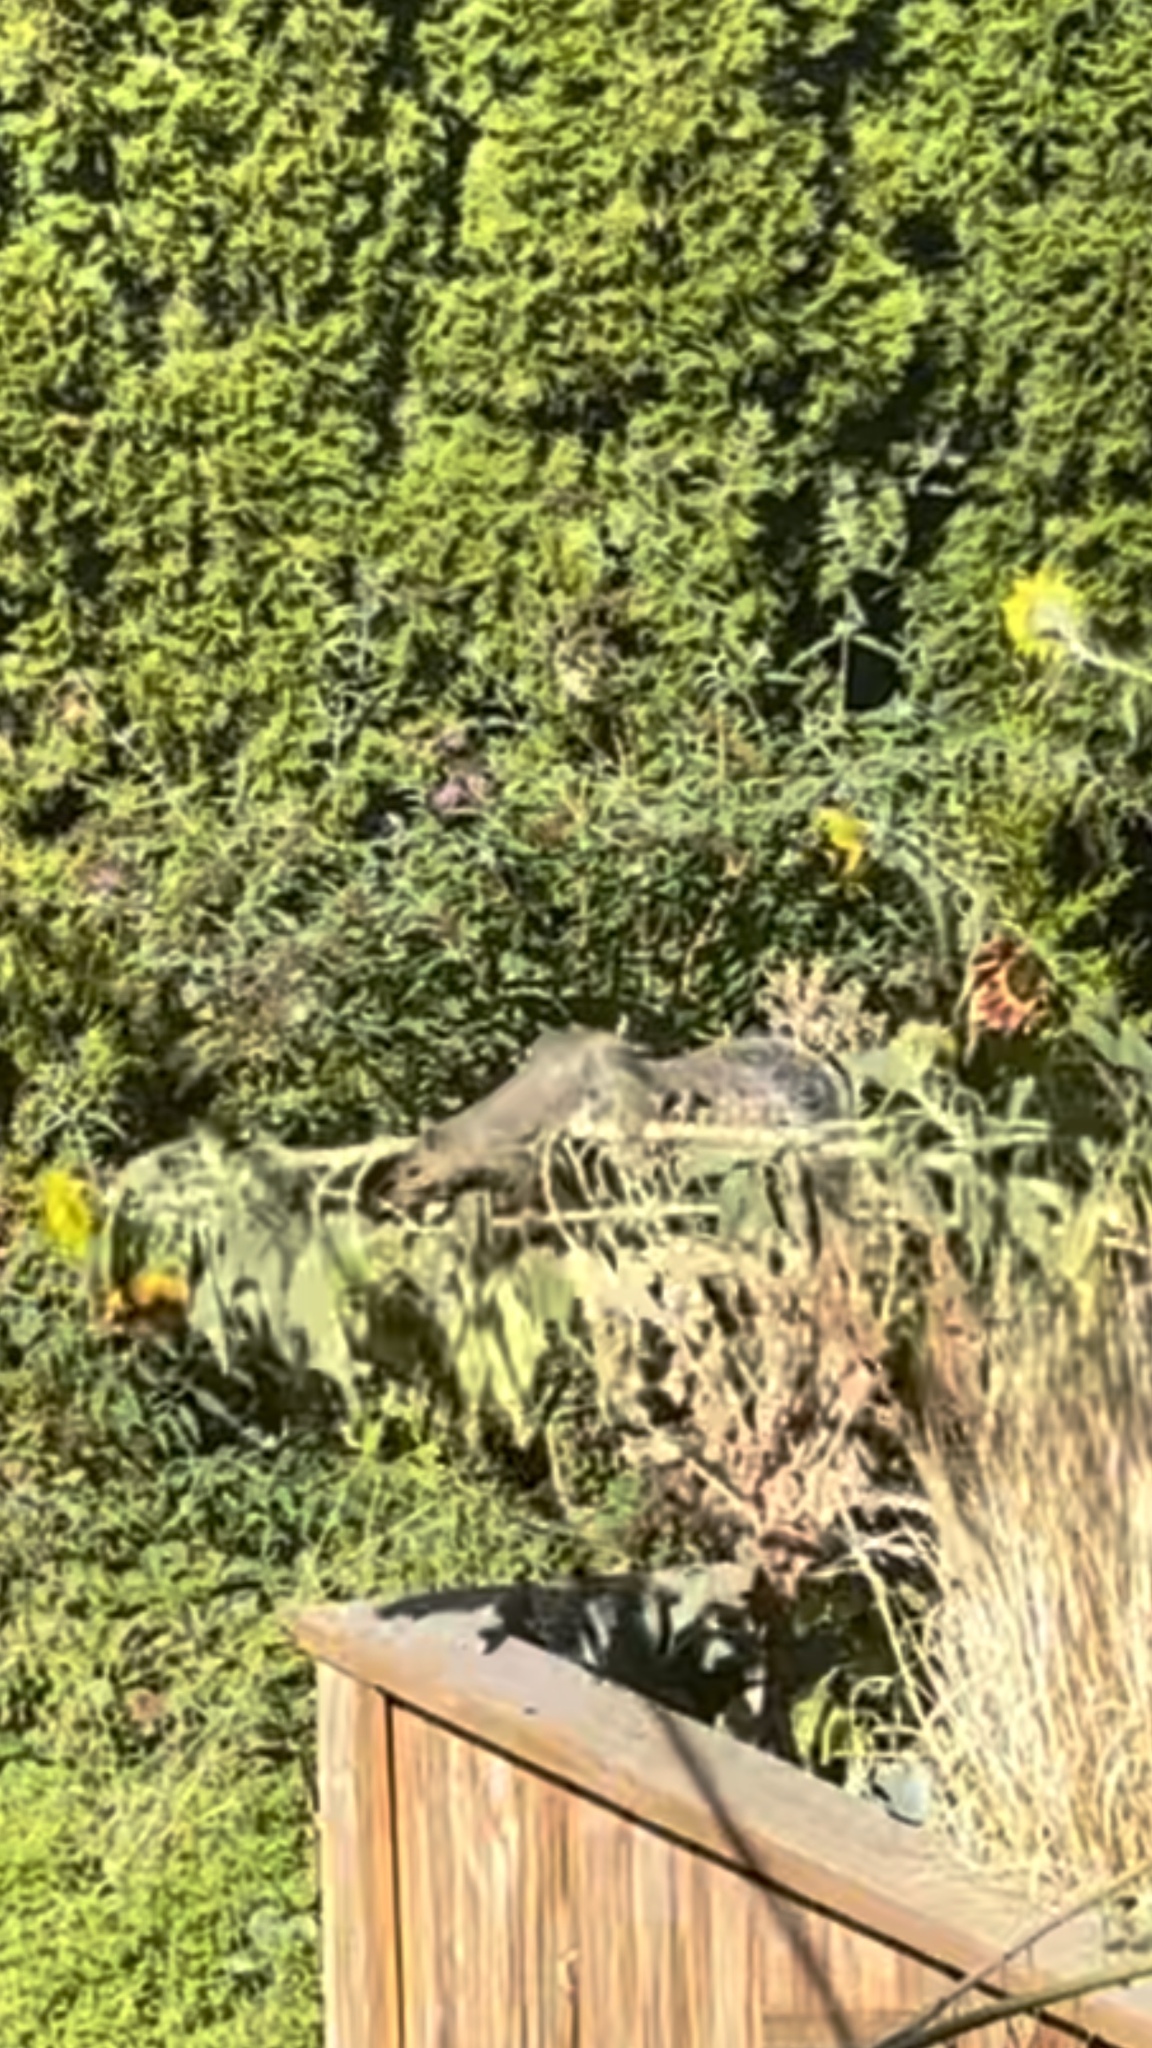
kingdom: Animalia
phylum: Chordata
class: Mammalia
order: Rodentia
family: Sciuridae
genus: Sciurus
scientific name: Sciurus carolinensis
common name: Eastern gray squirrel
